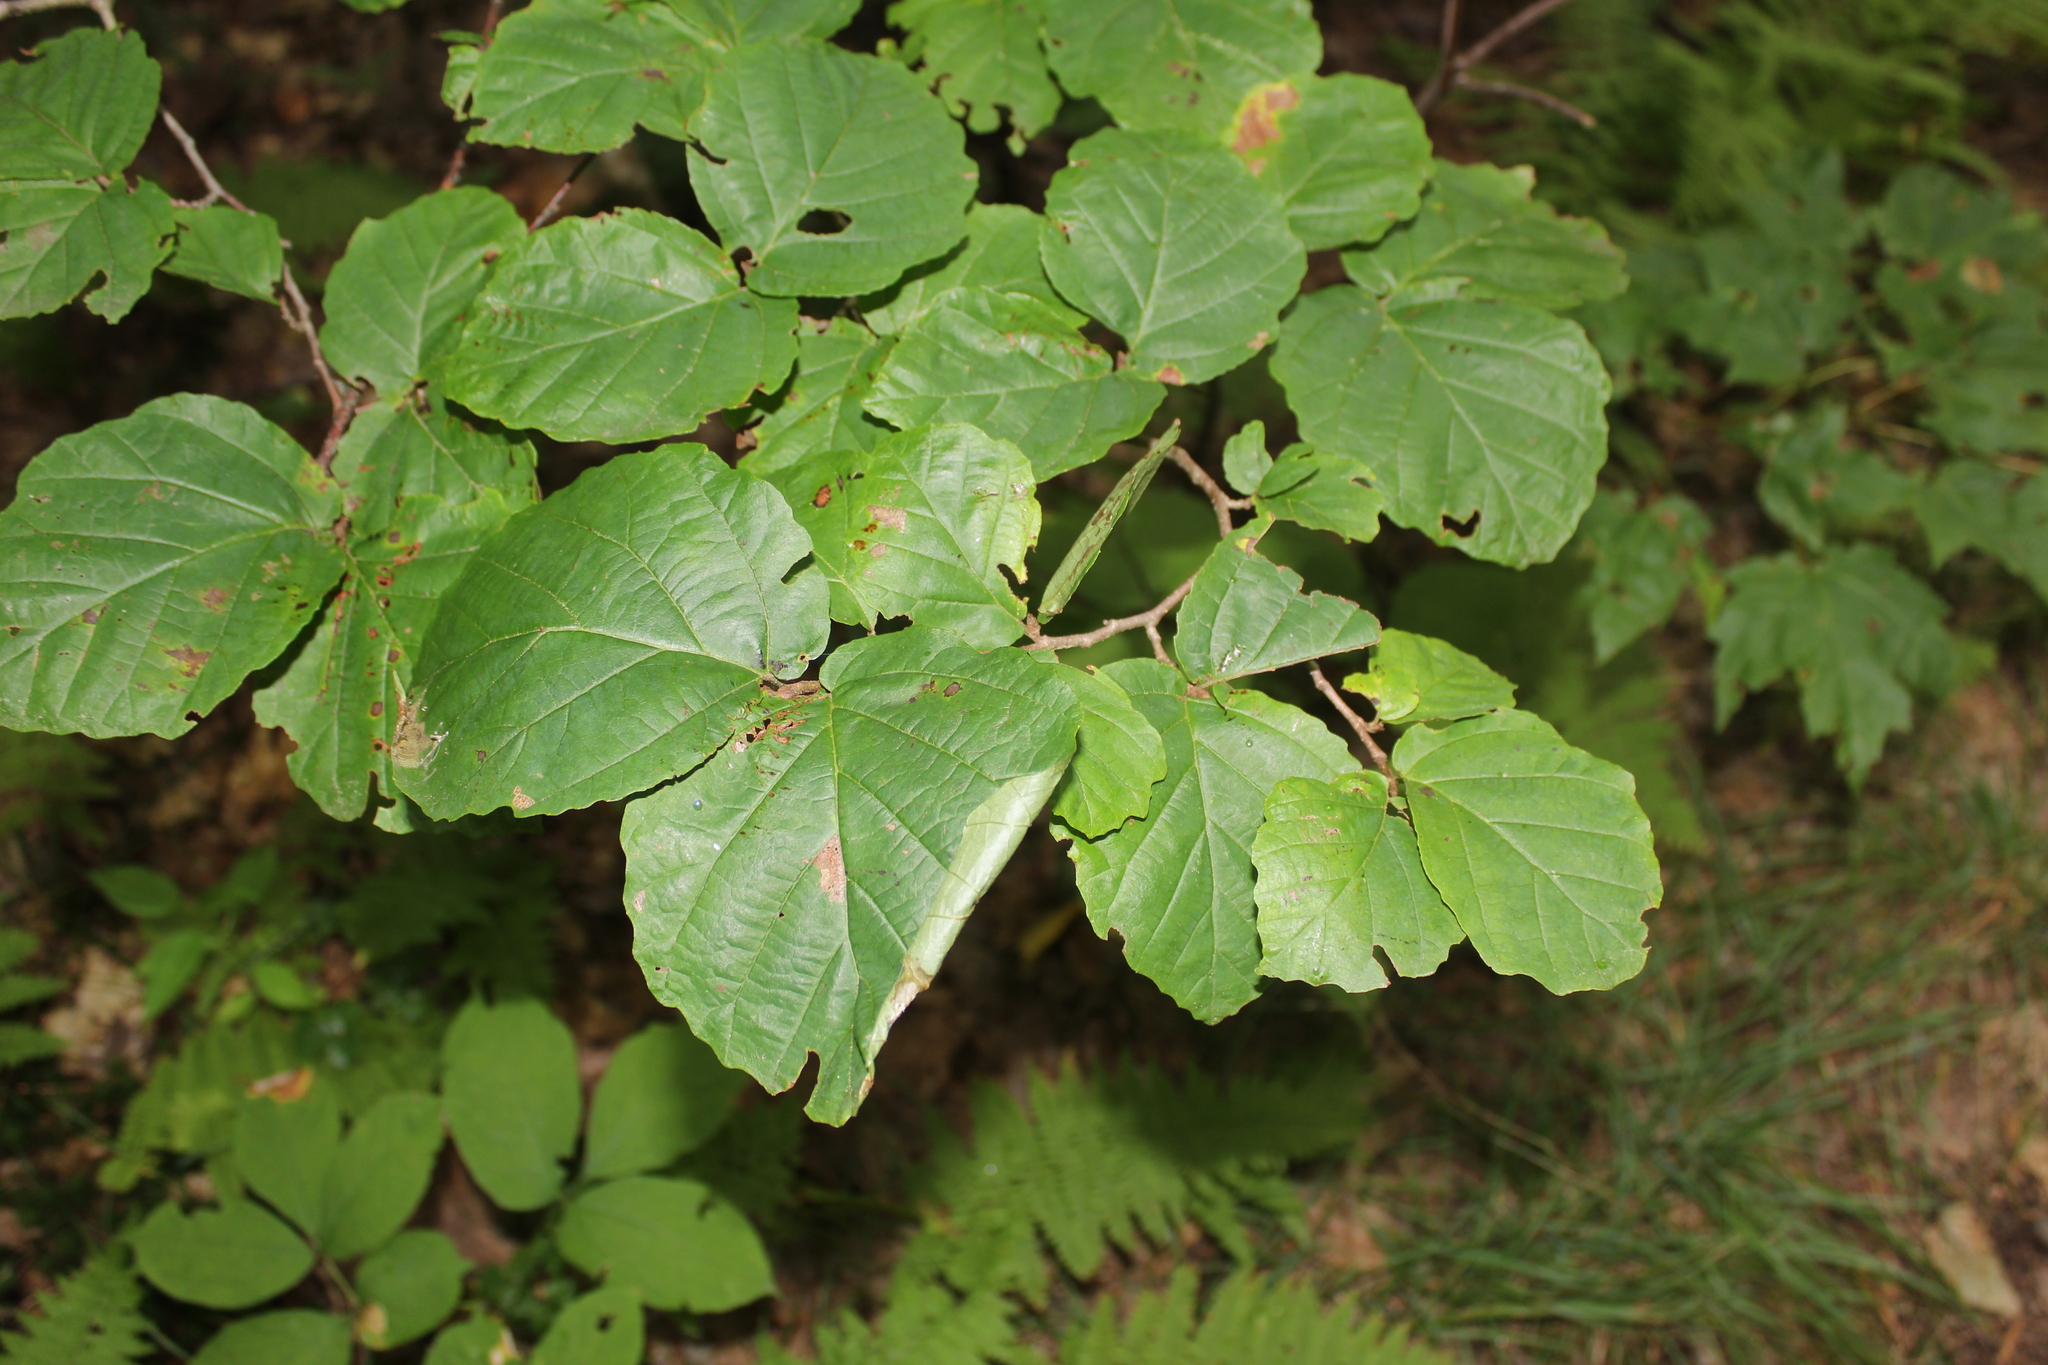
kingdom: Plantae
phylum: Tracheophyta
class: Magnoliopsida
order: Saxifragales
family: Hamamelidaceae
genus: Hamamelis
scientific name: Hamamelis virginiana
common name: Witch-hazel
